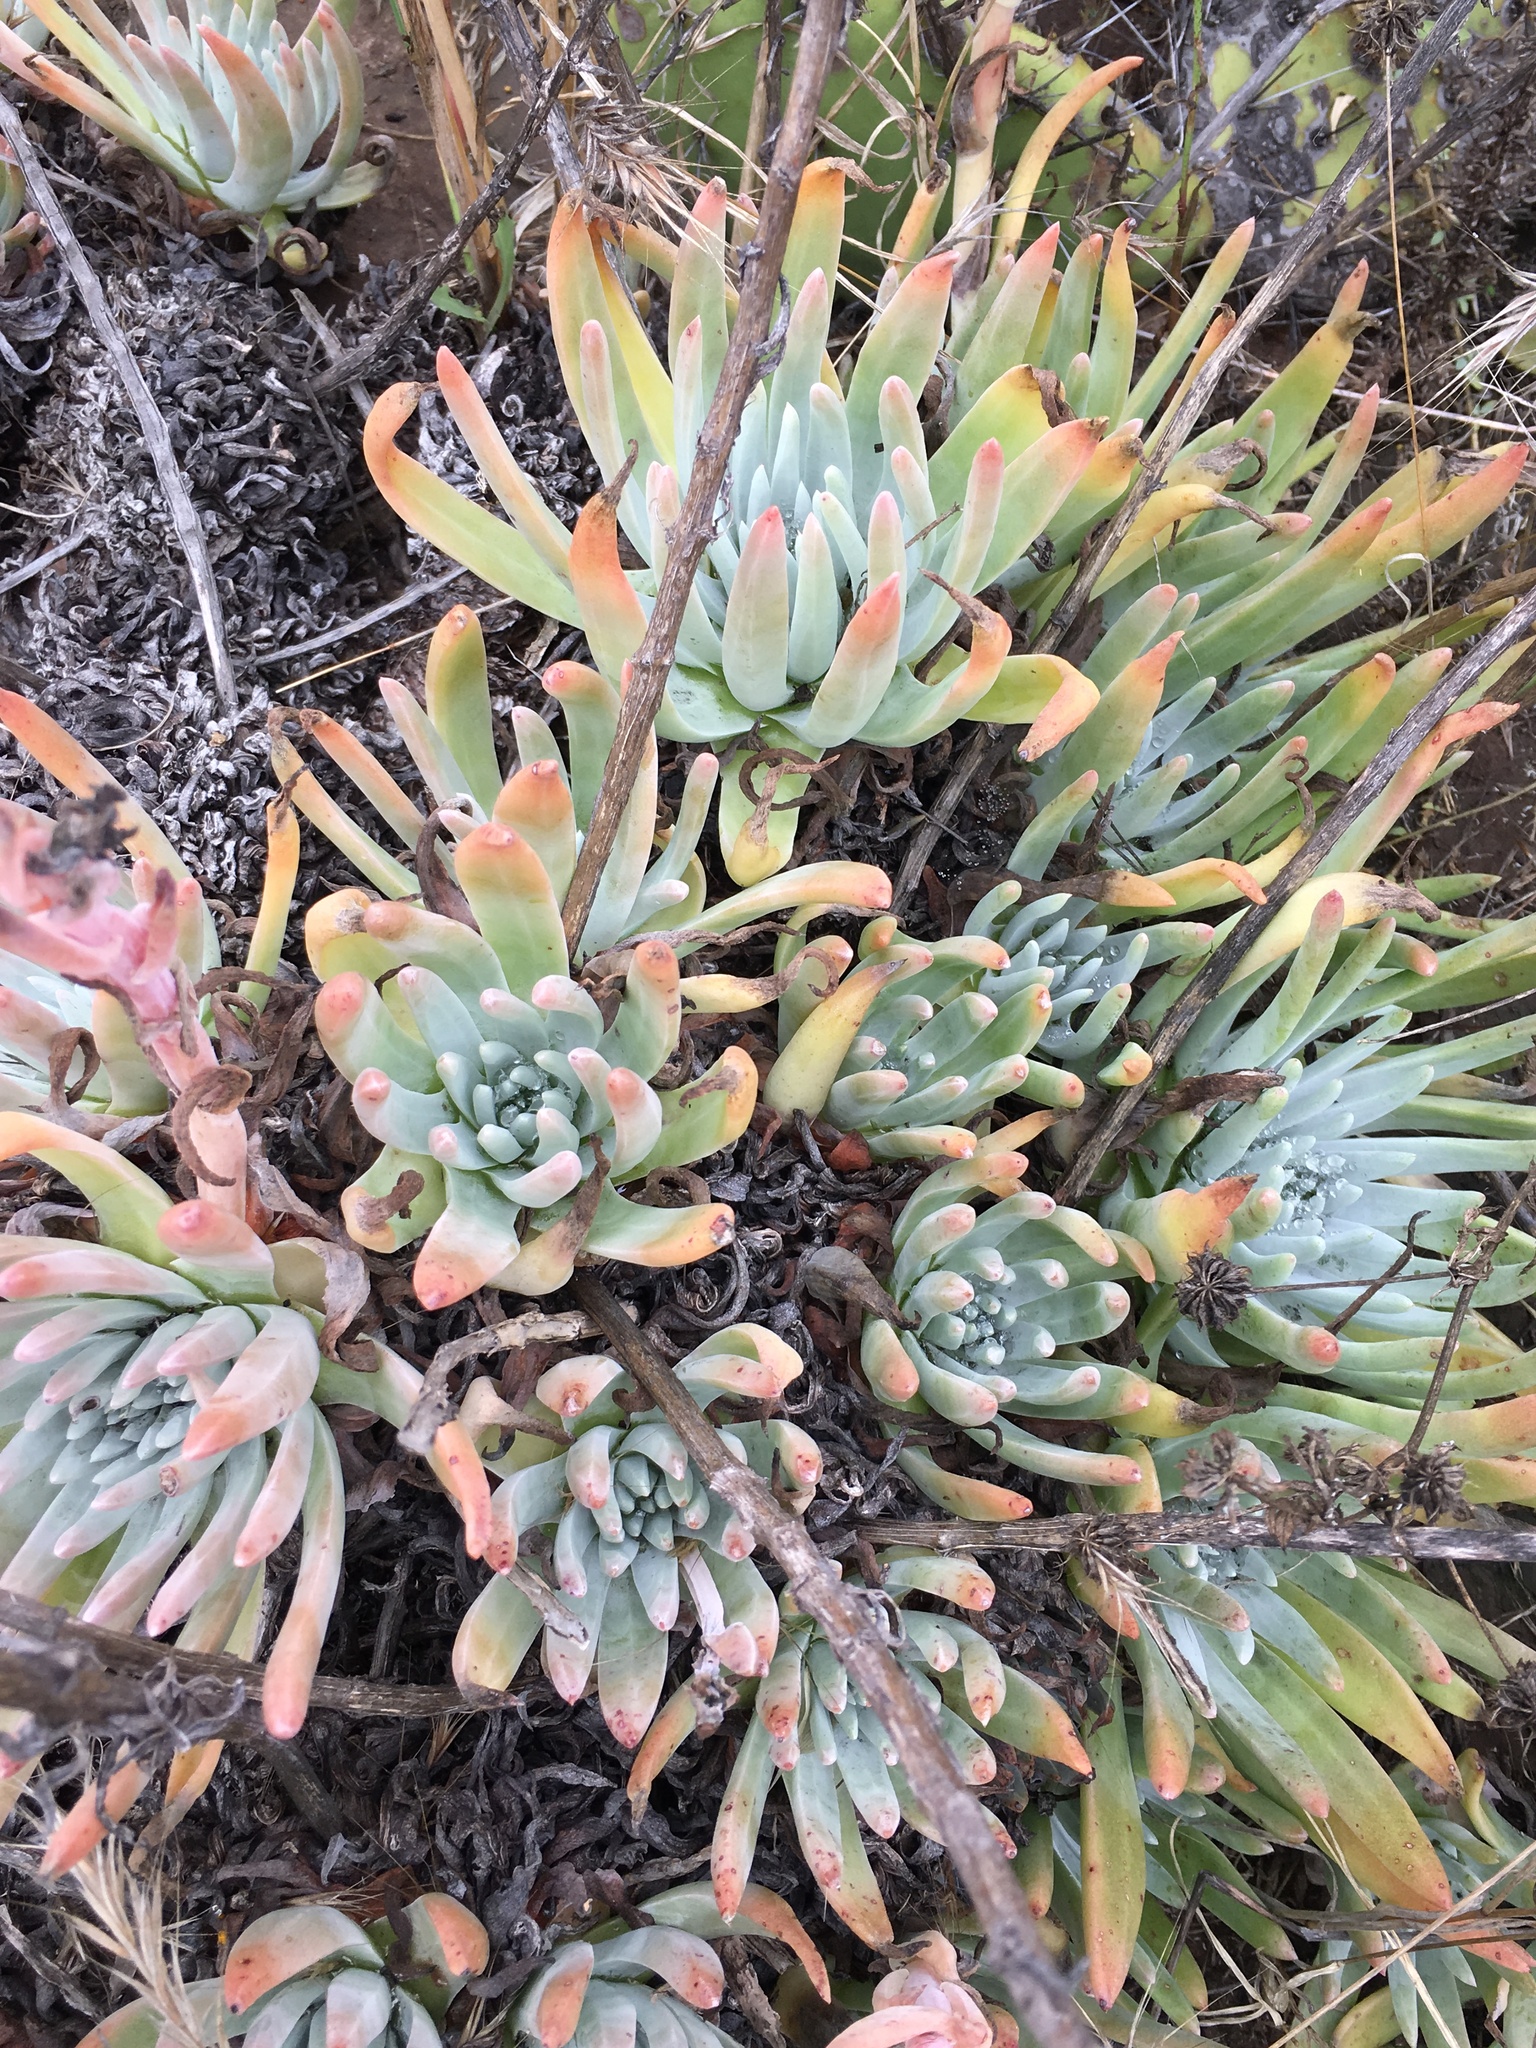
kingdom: Plantae
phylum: Tracheophyta
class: Magnoliopsida
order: Saxifragales
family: Crassulaceae
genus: Dudleya
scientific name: Dudleya virens
